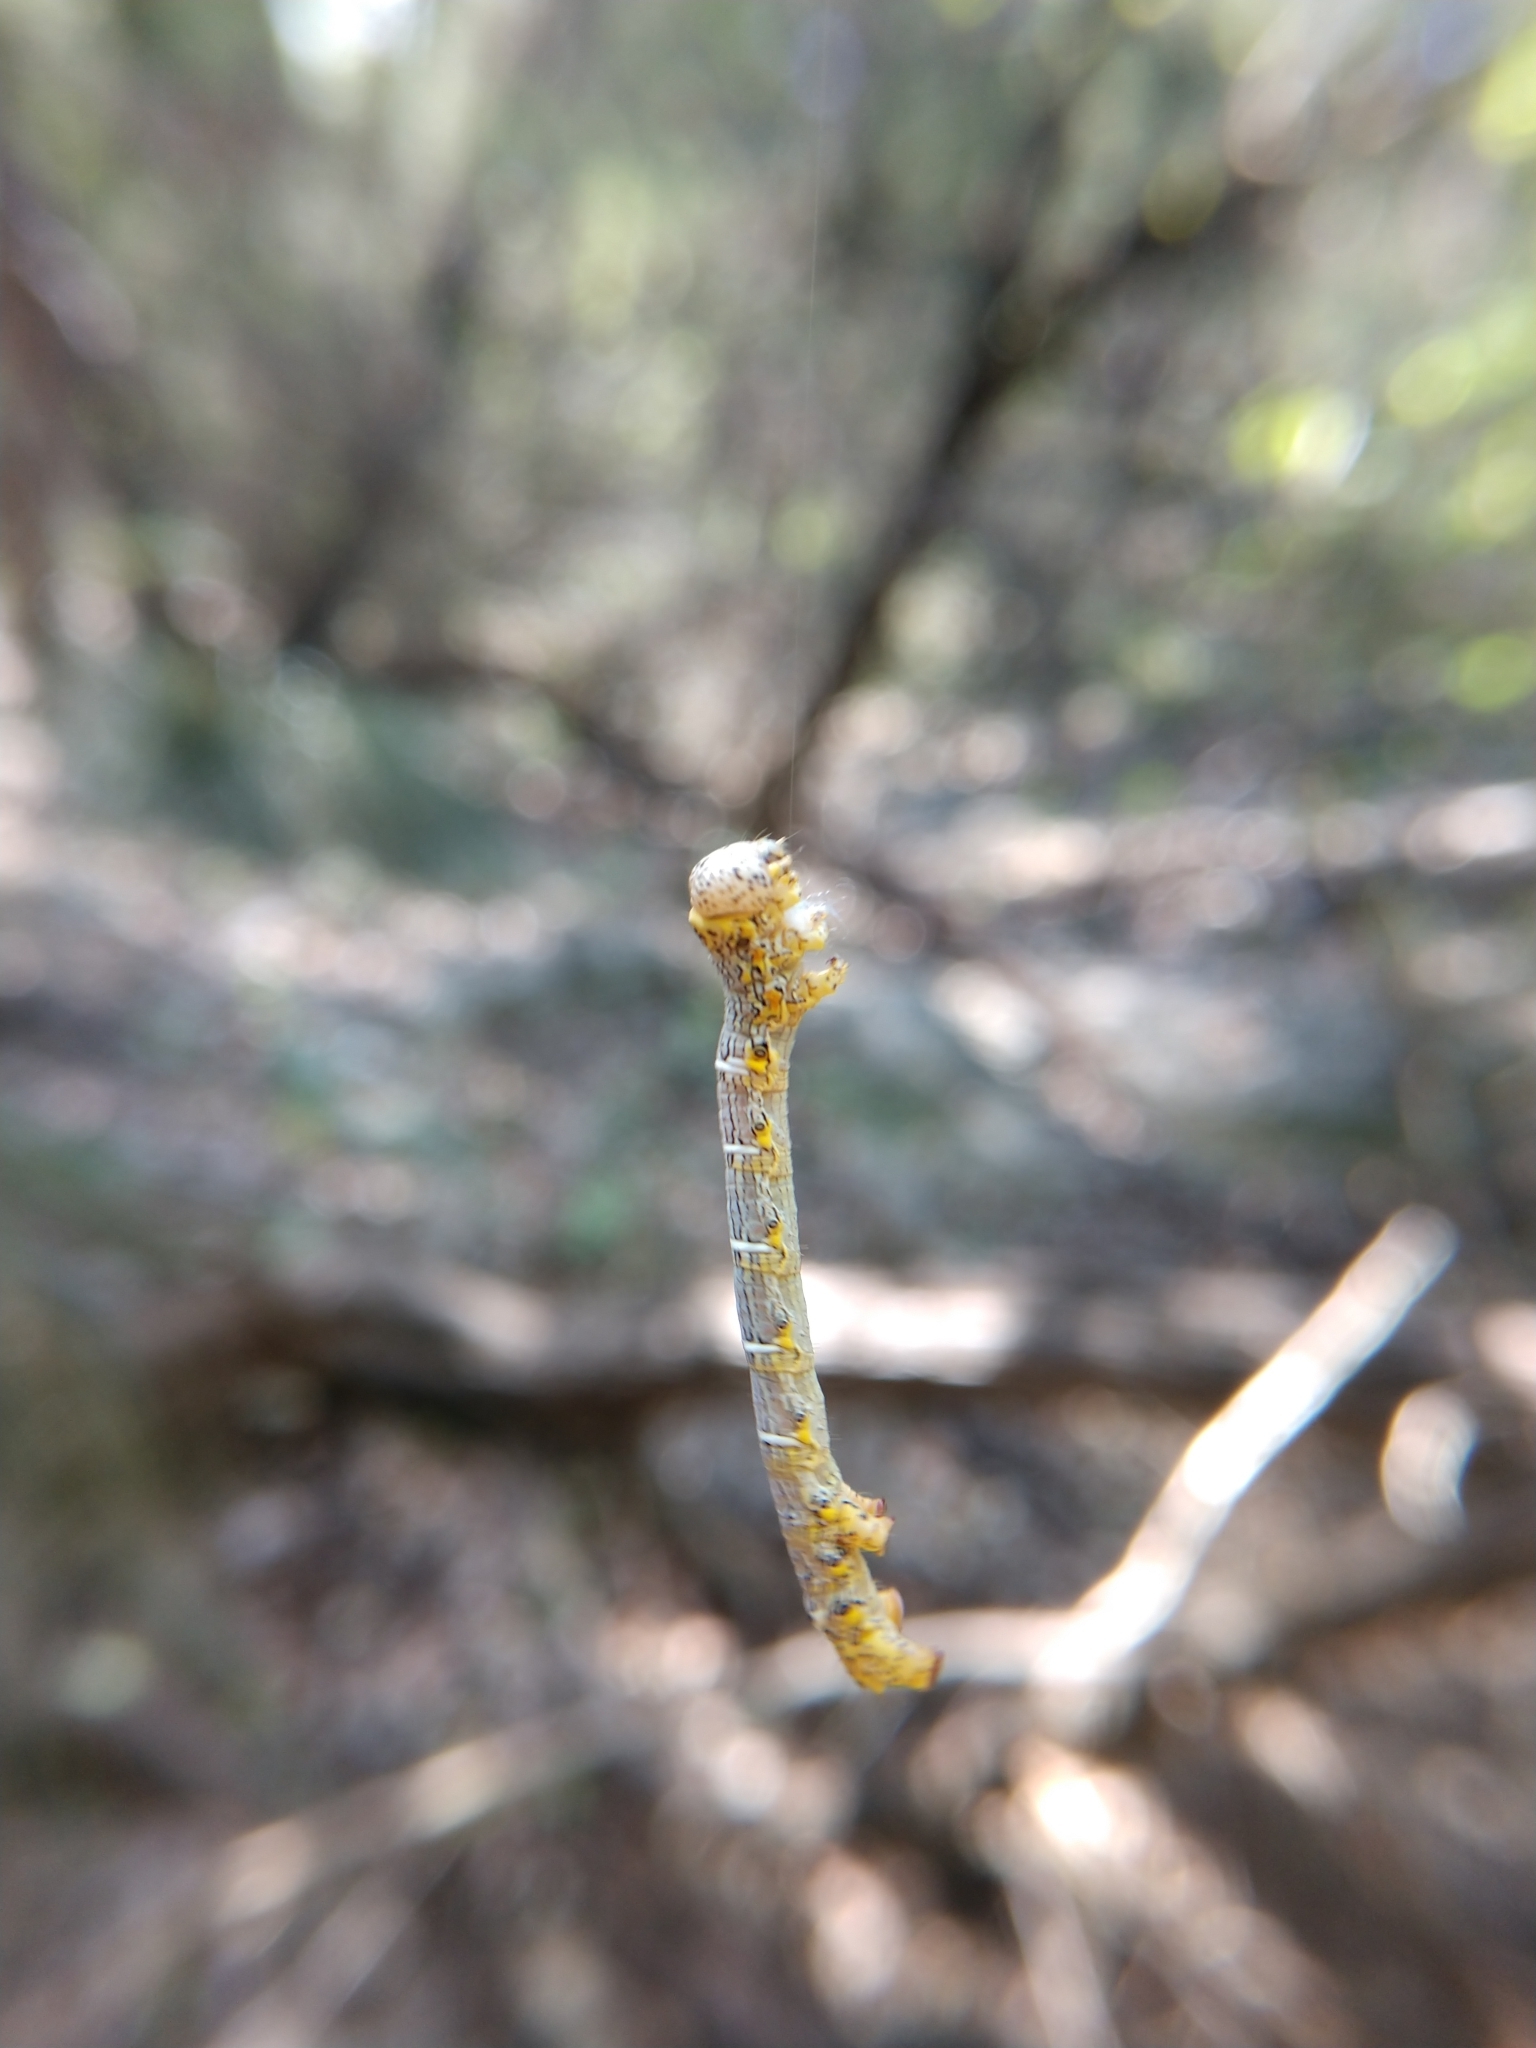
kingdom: Animalia
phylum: Arthropoda
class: Insecta
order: Lepidoptera
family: Geometridae
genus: Lycia
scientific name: Lycia ypsilon
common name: Wooly gray
